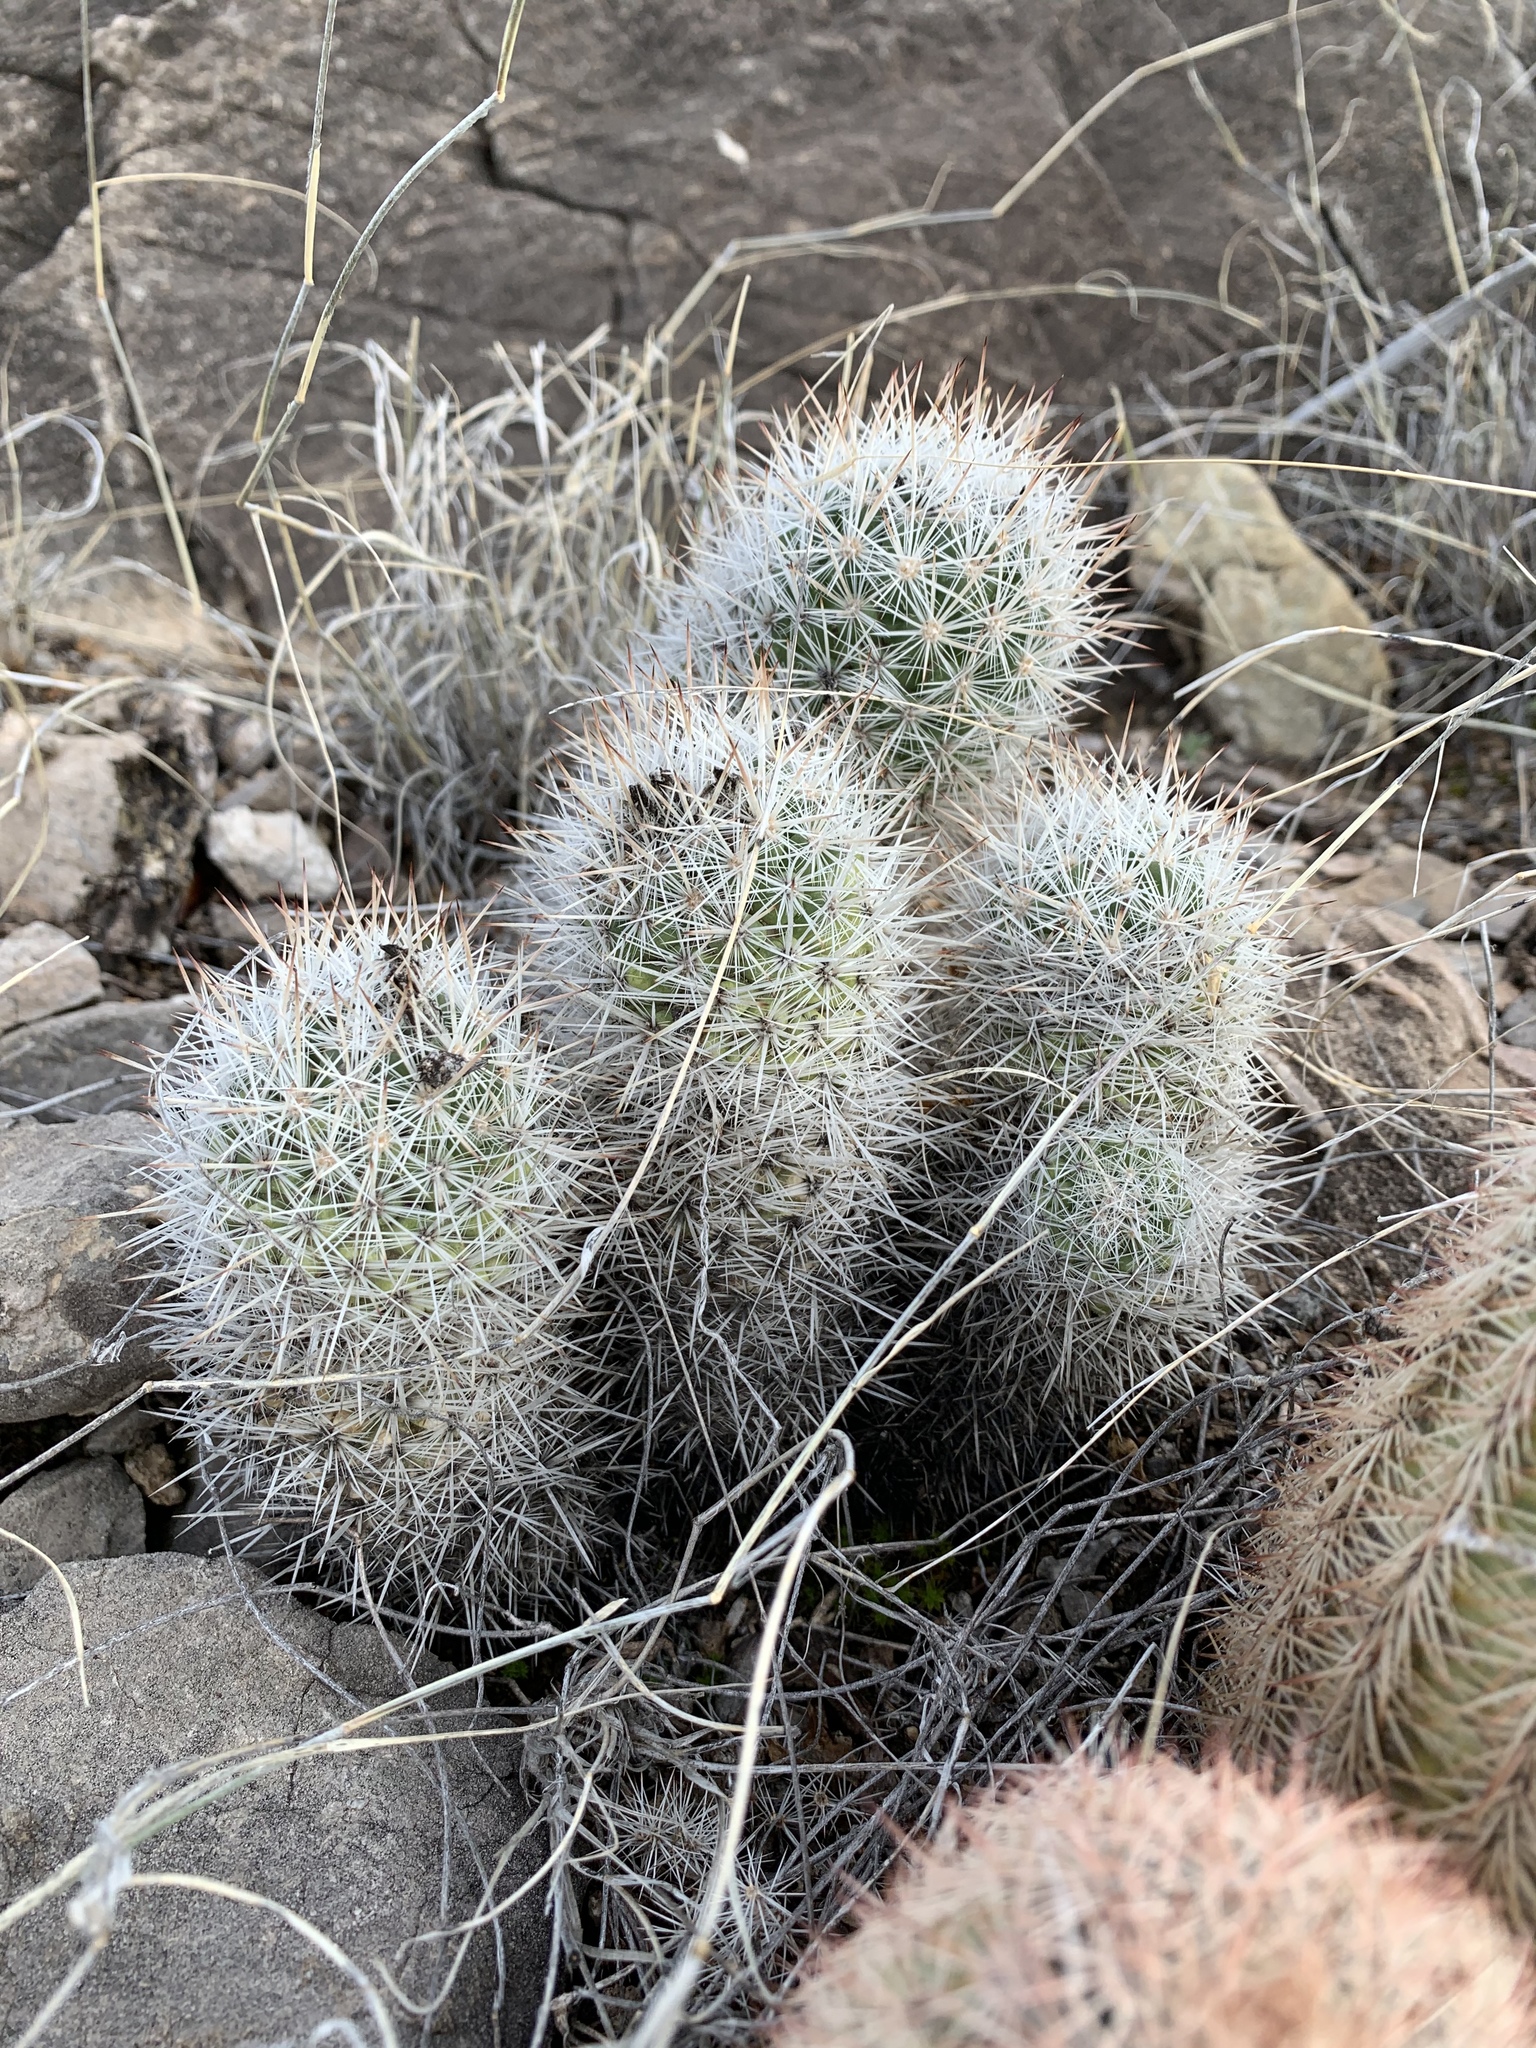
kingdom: Plantae
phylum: Tracheophyta
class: Magnoliopsida
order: Caryophyllales
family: Cactaceae
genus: Pelecyphora
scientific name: Pelecyphora sneedii
